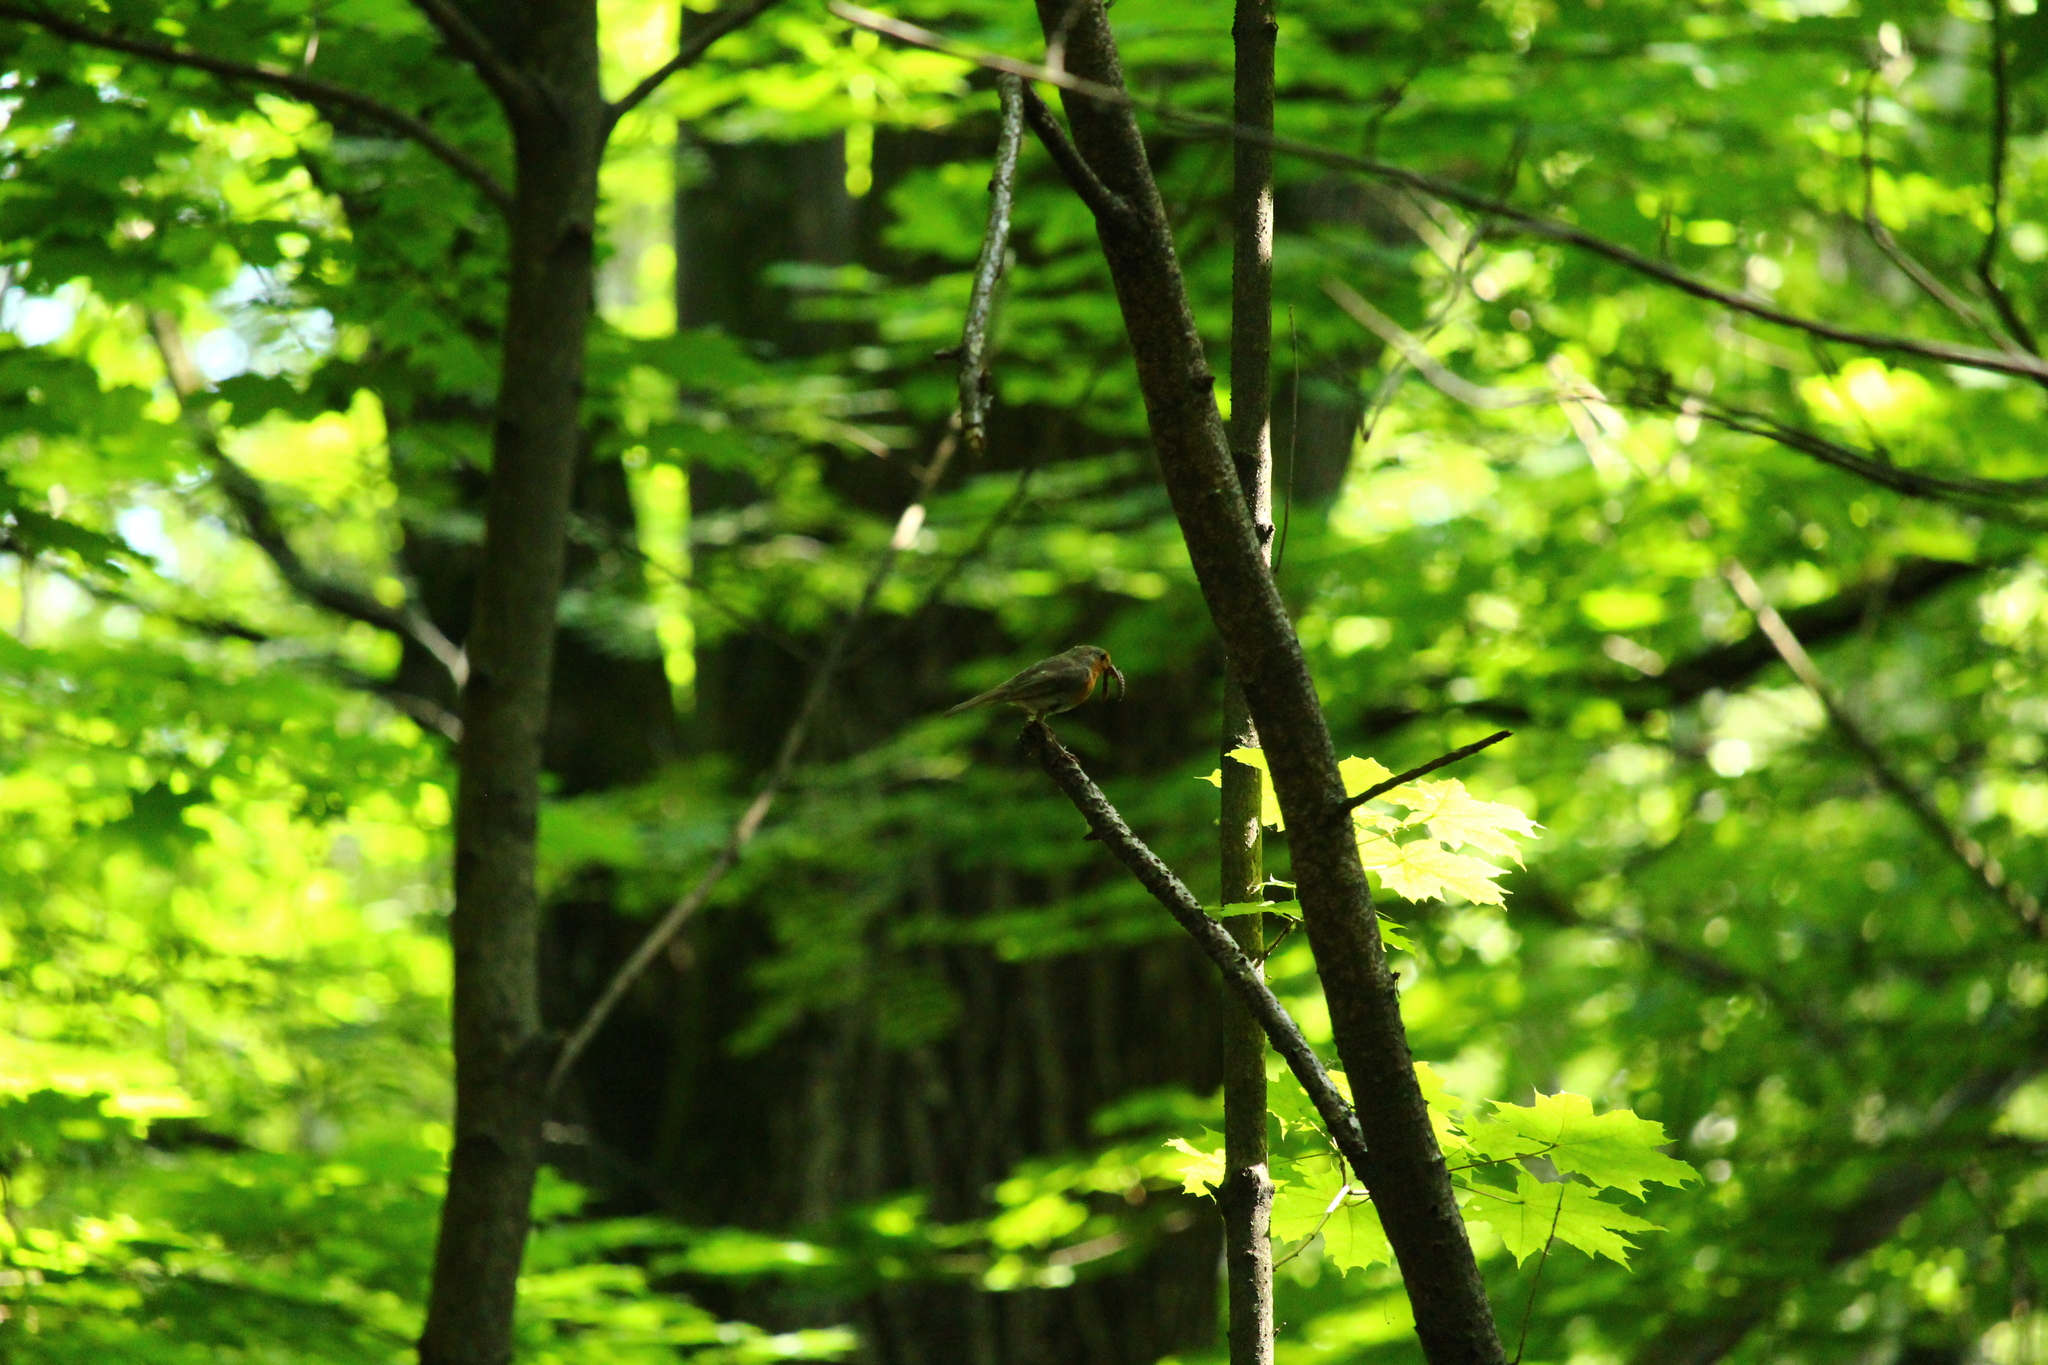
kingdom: Animalia
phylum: Chordata
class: Aves
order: Passeriformes
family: Muscicapidae
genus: Erithacus
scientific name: Erithacus rubecula
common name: European robin
